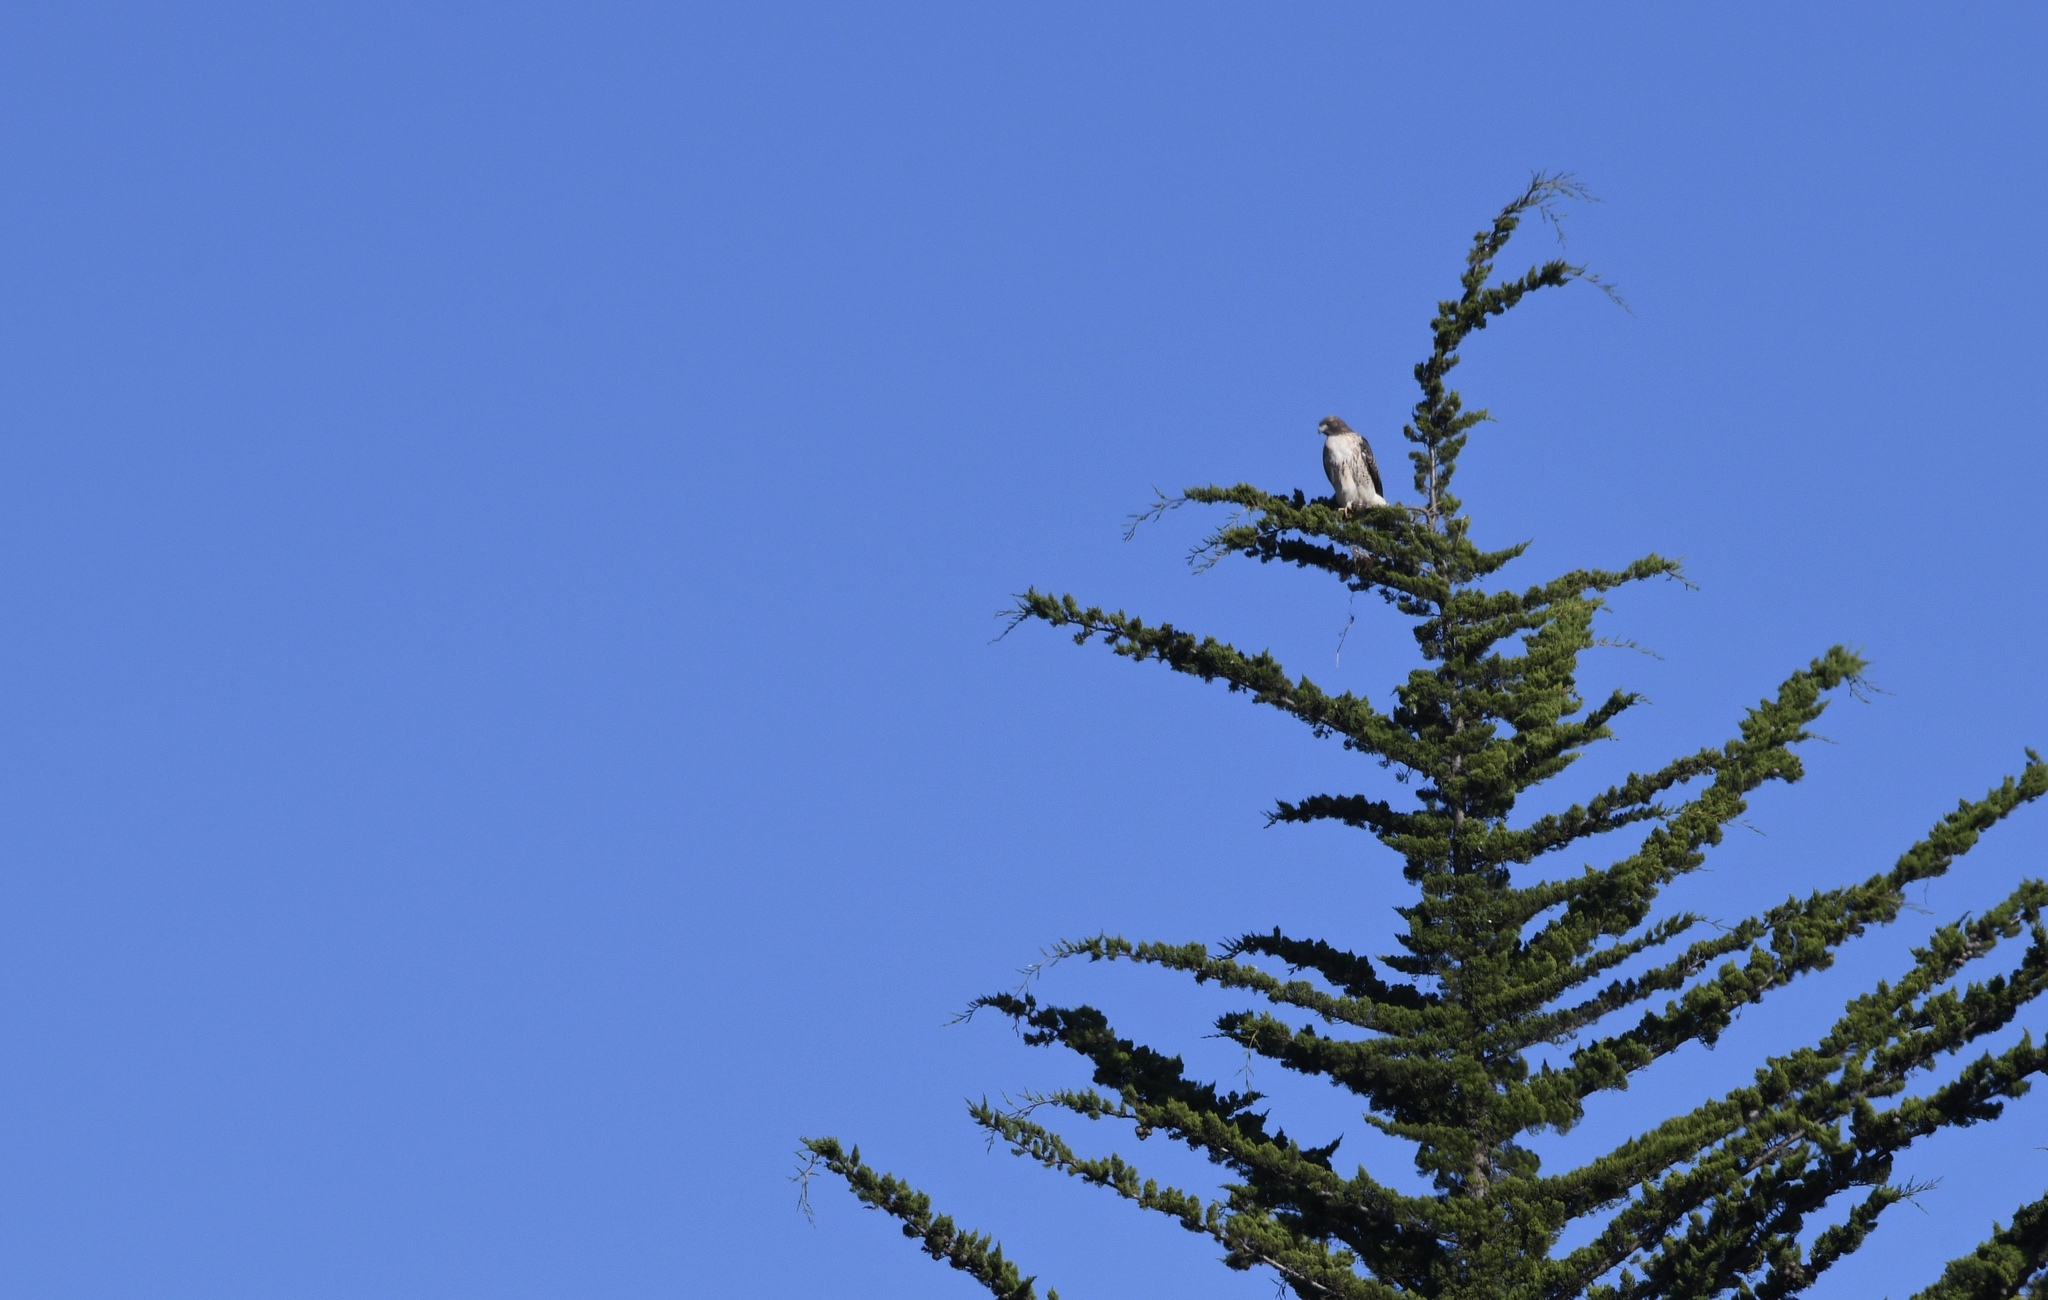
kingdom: Animalia
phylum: Chordata
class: Aves
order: Accipitriformes
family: Accipitridae
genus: Buteo
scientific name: Buteo jamaicensis
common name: Red-tailed hawk
